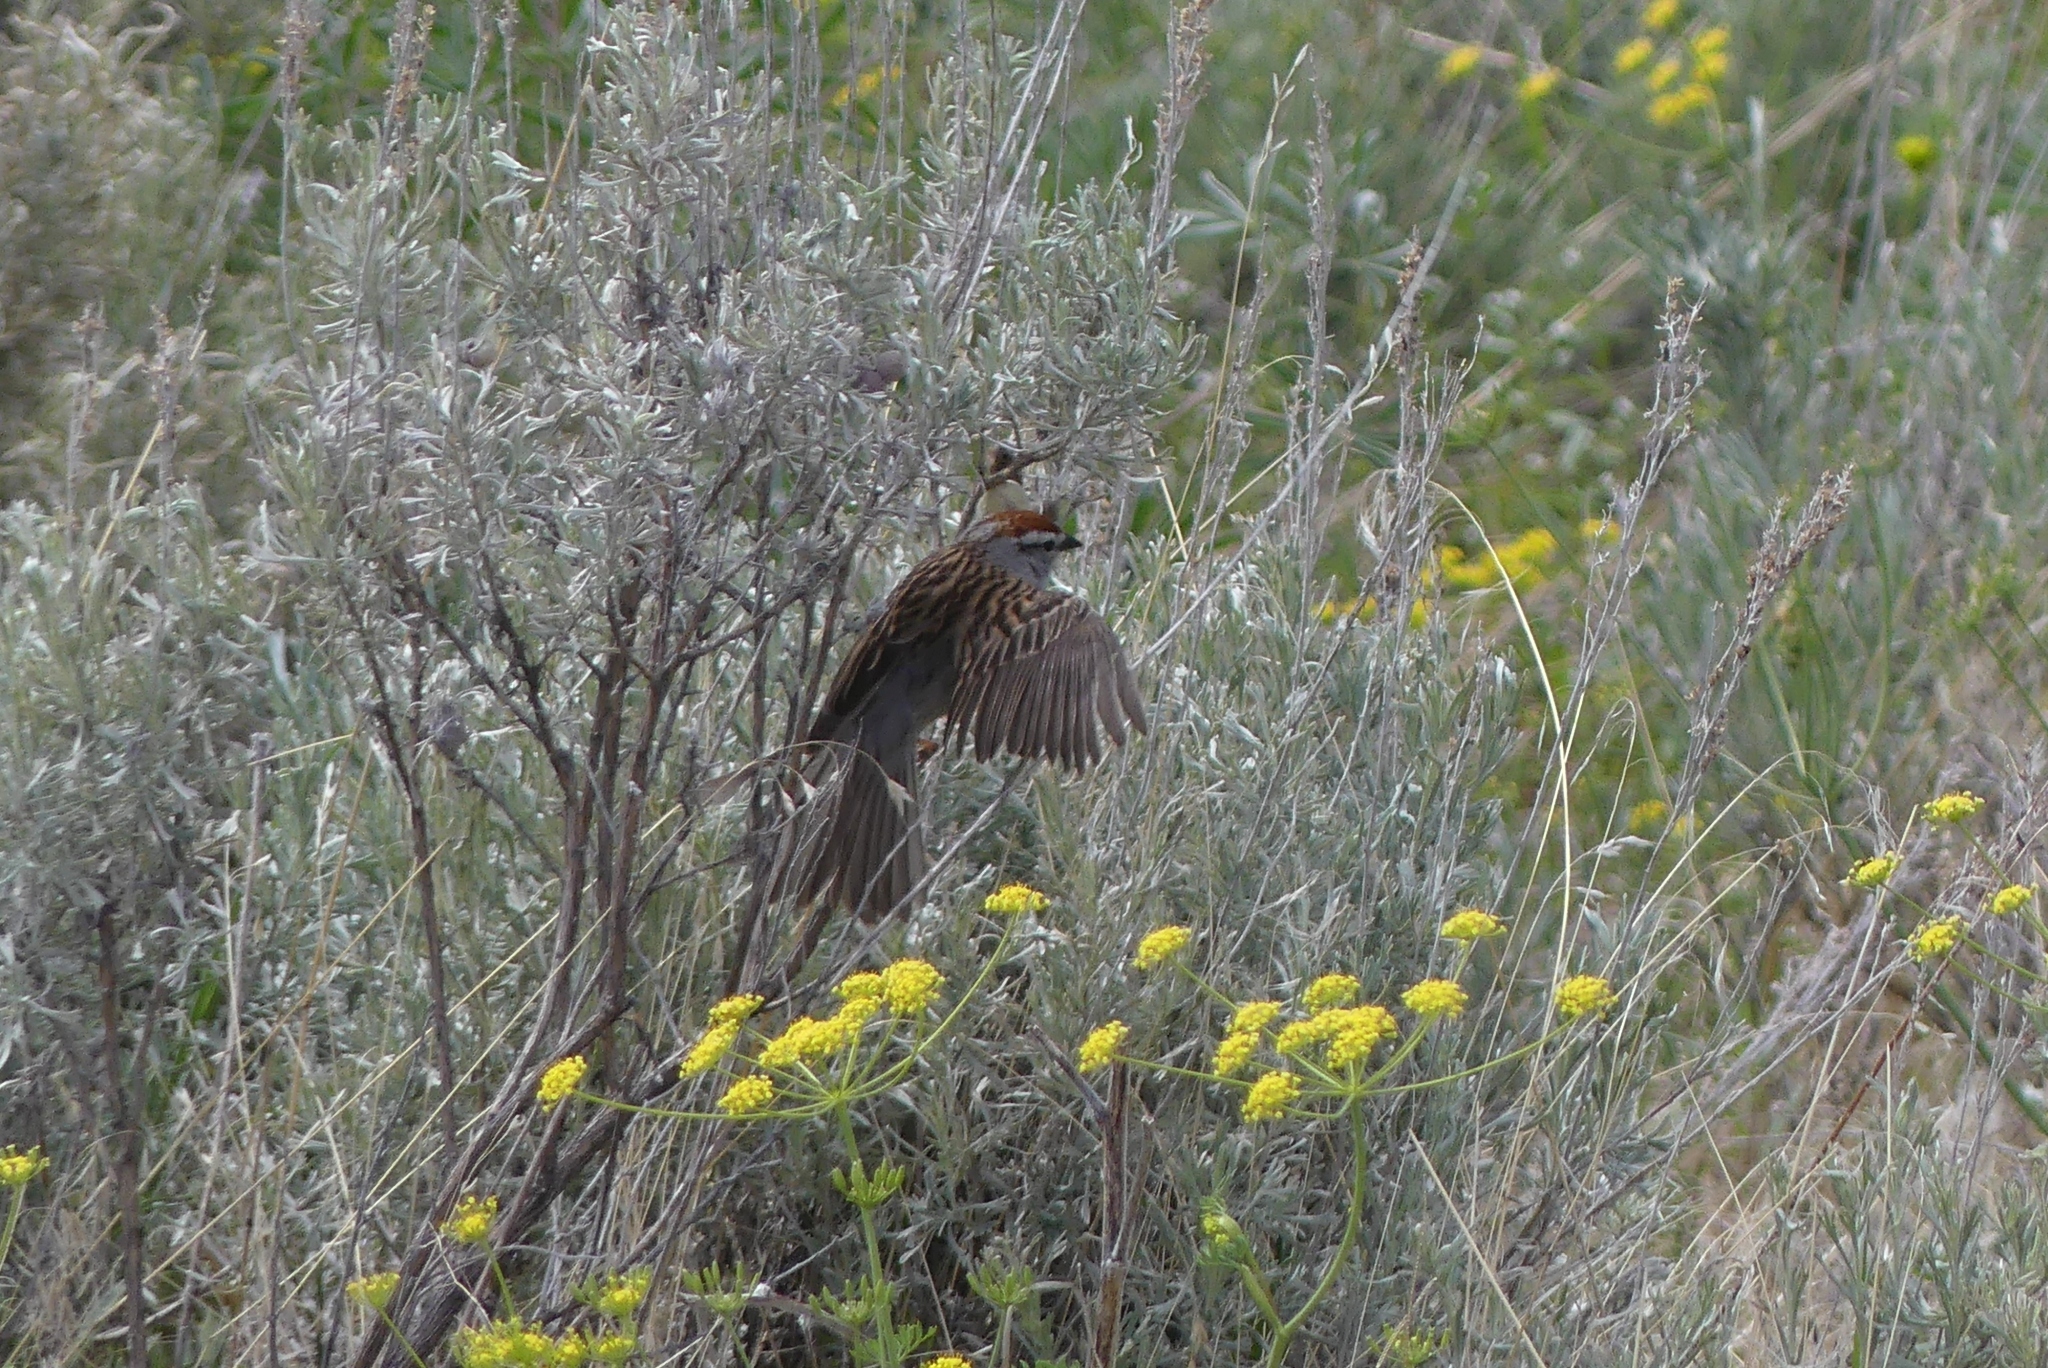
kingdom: Animalia
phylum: Chordata
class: Aves
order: Passeriformes
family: Passerellidae
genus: Spizella
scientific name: Spizella passerina
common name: Chipping sparrow
